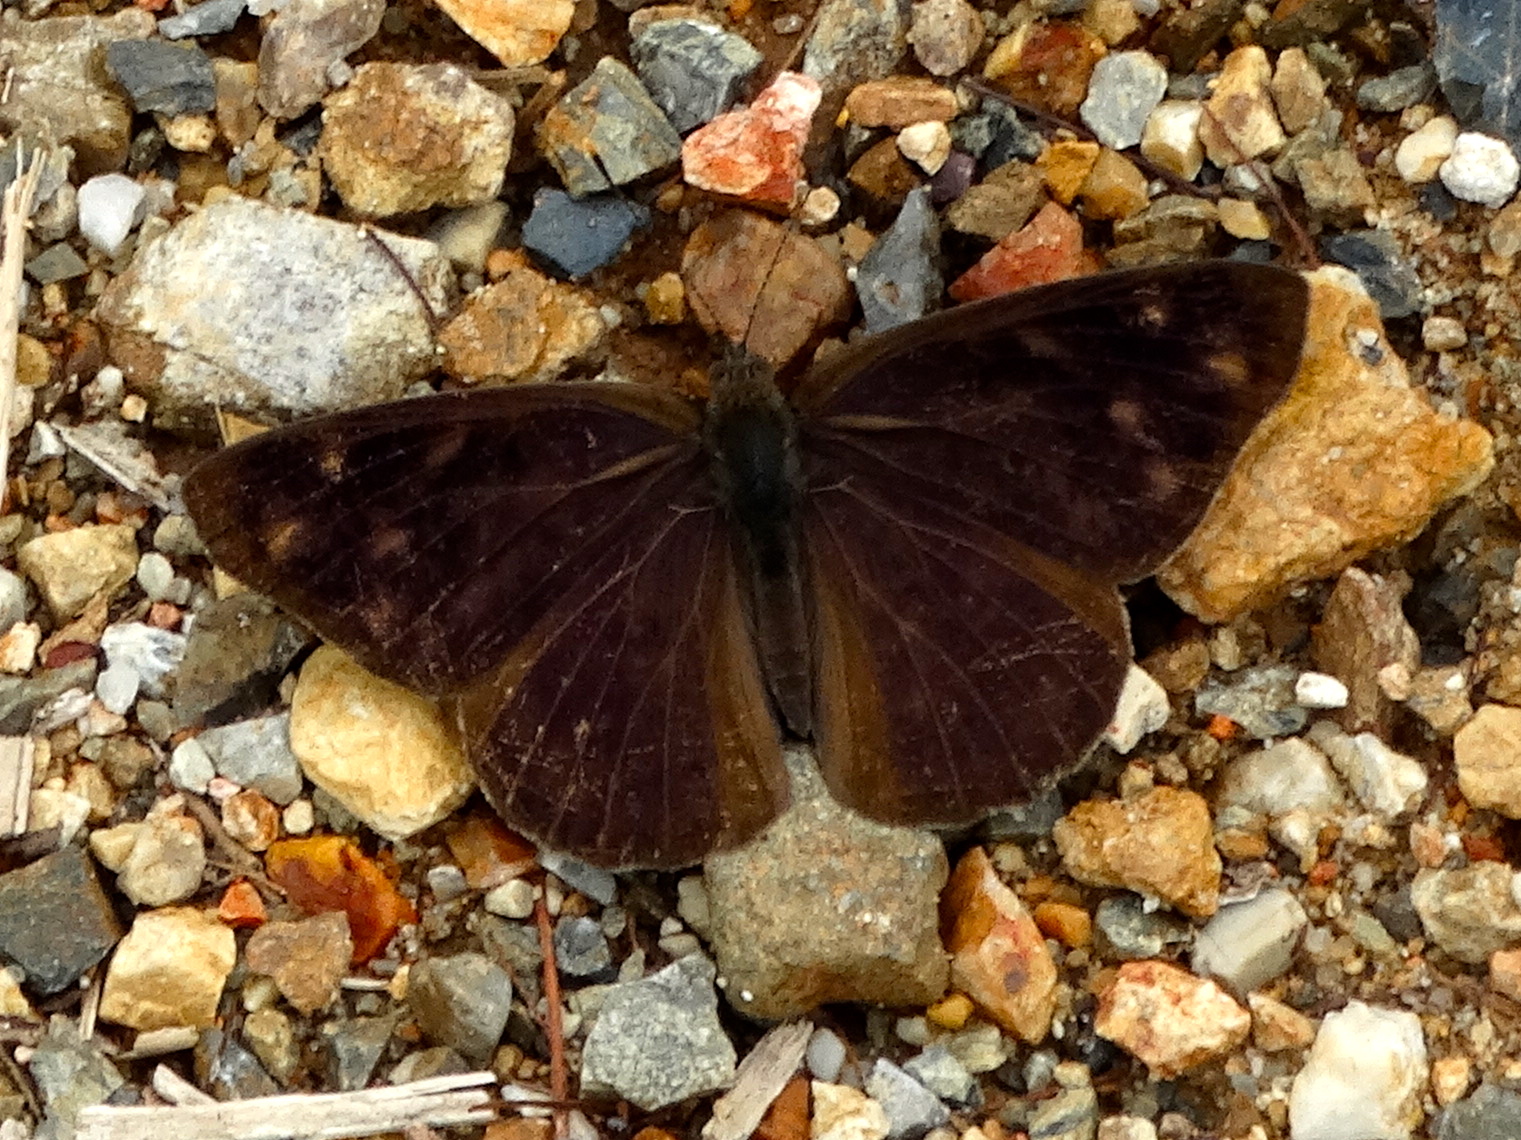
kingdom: Animalia
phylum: Arthropoda
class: Insecta
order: Lepidoptera
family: Nymphalidae
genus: Eunica
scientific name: Eunica monima
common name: Dingy purplewing
